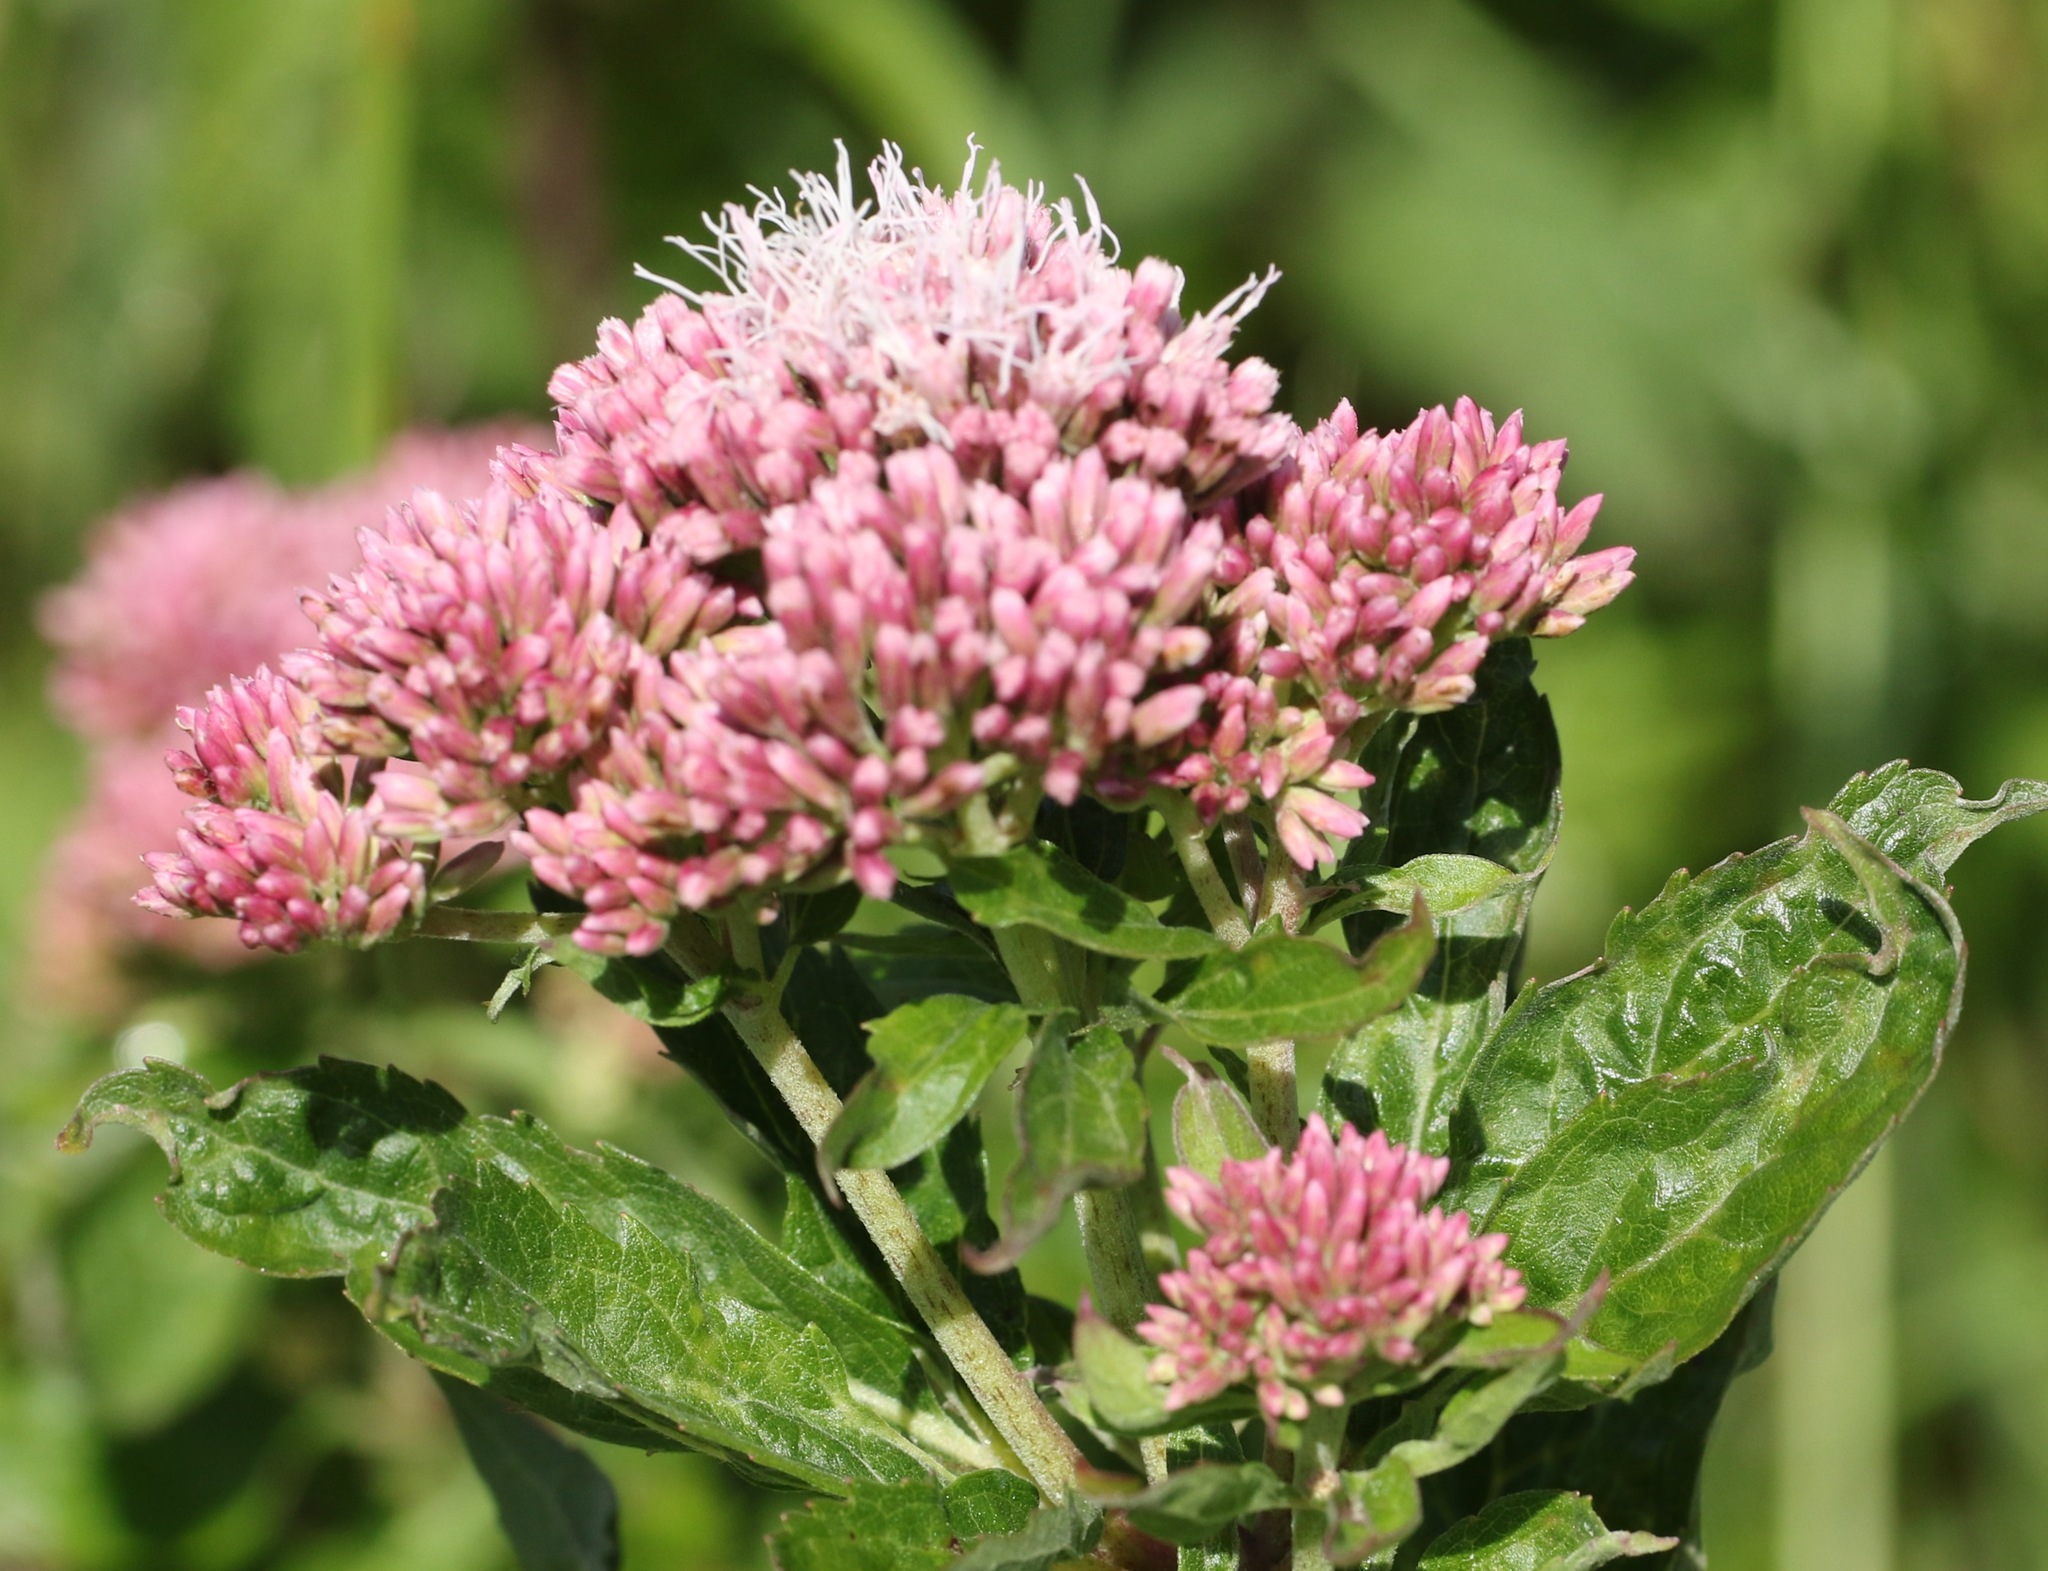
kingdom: Plantae
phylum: Tracheophyta
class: Magnoliopsida
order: Asterales
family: Asteraceae
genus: Eupatorium
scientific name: Eupatorium cannabinum
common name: Hemp-agrimony
